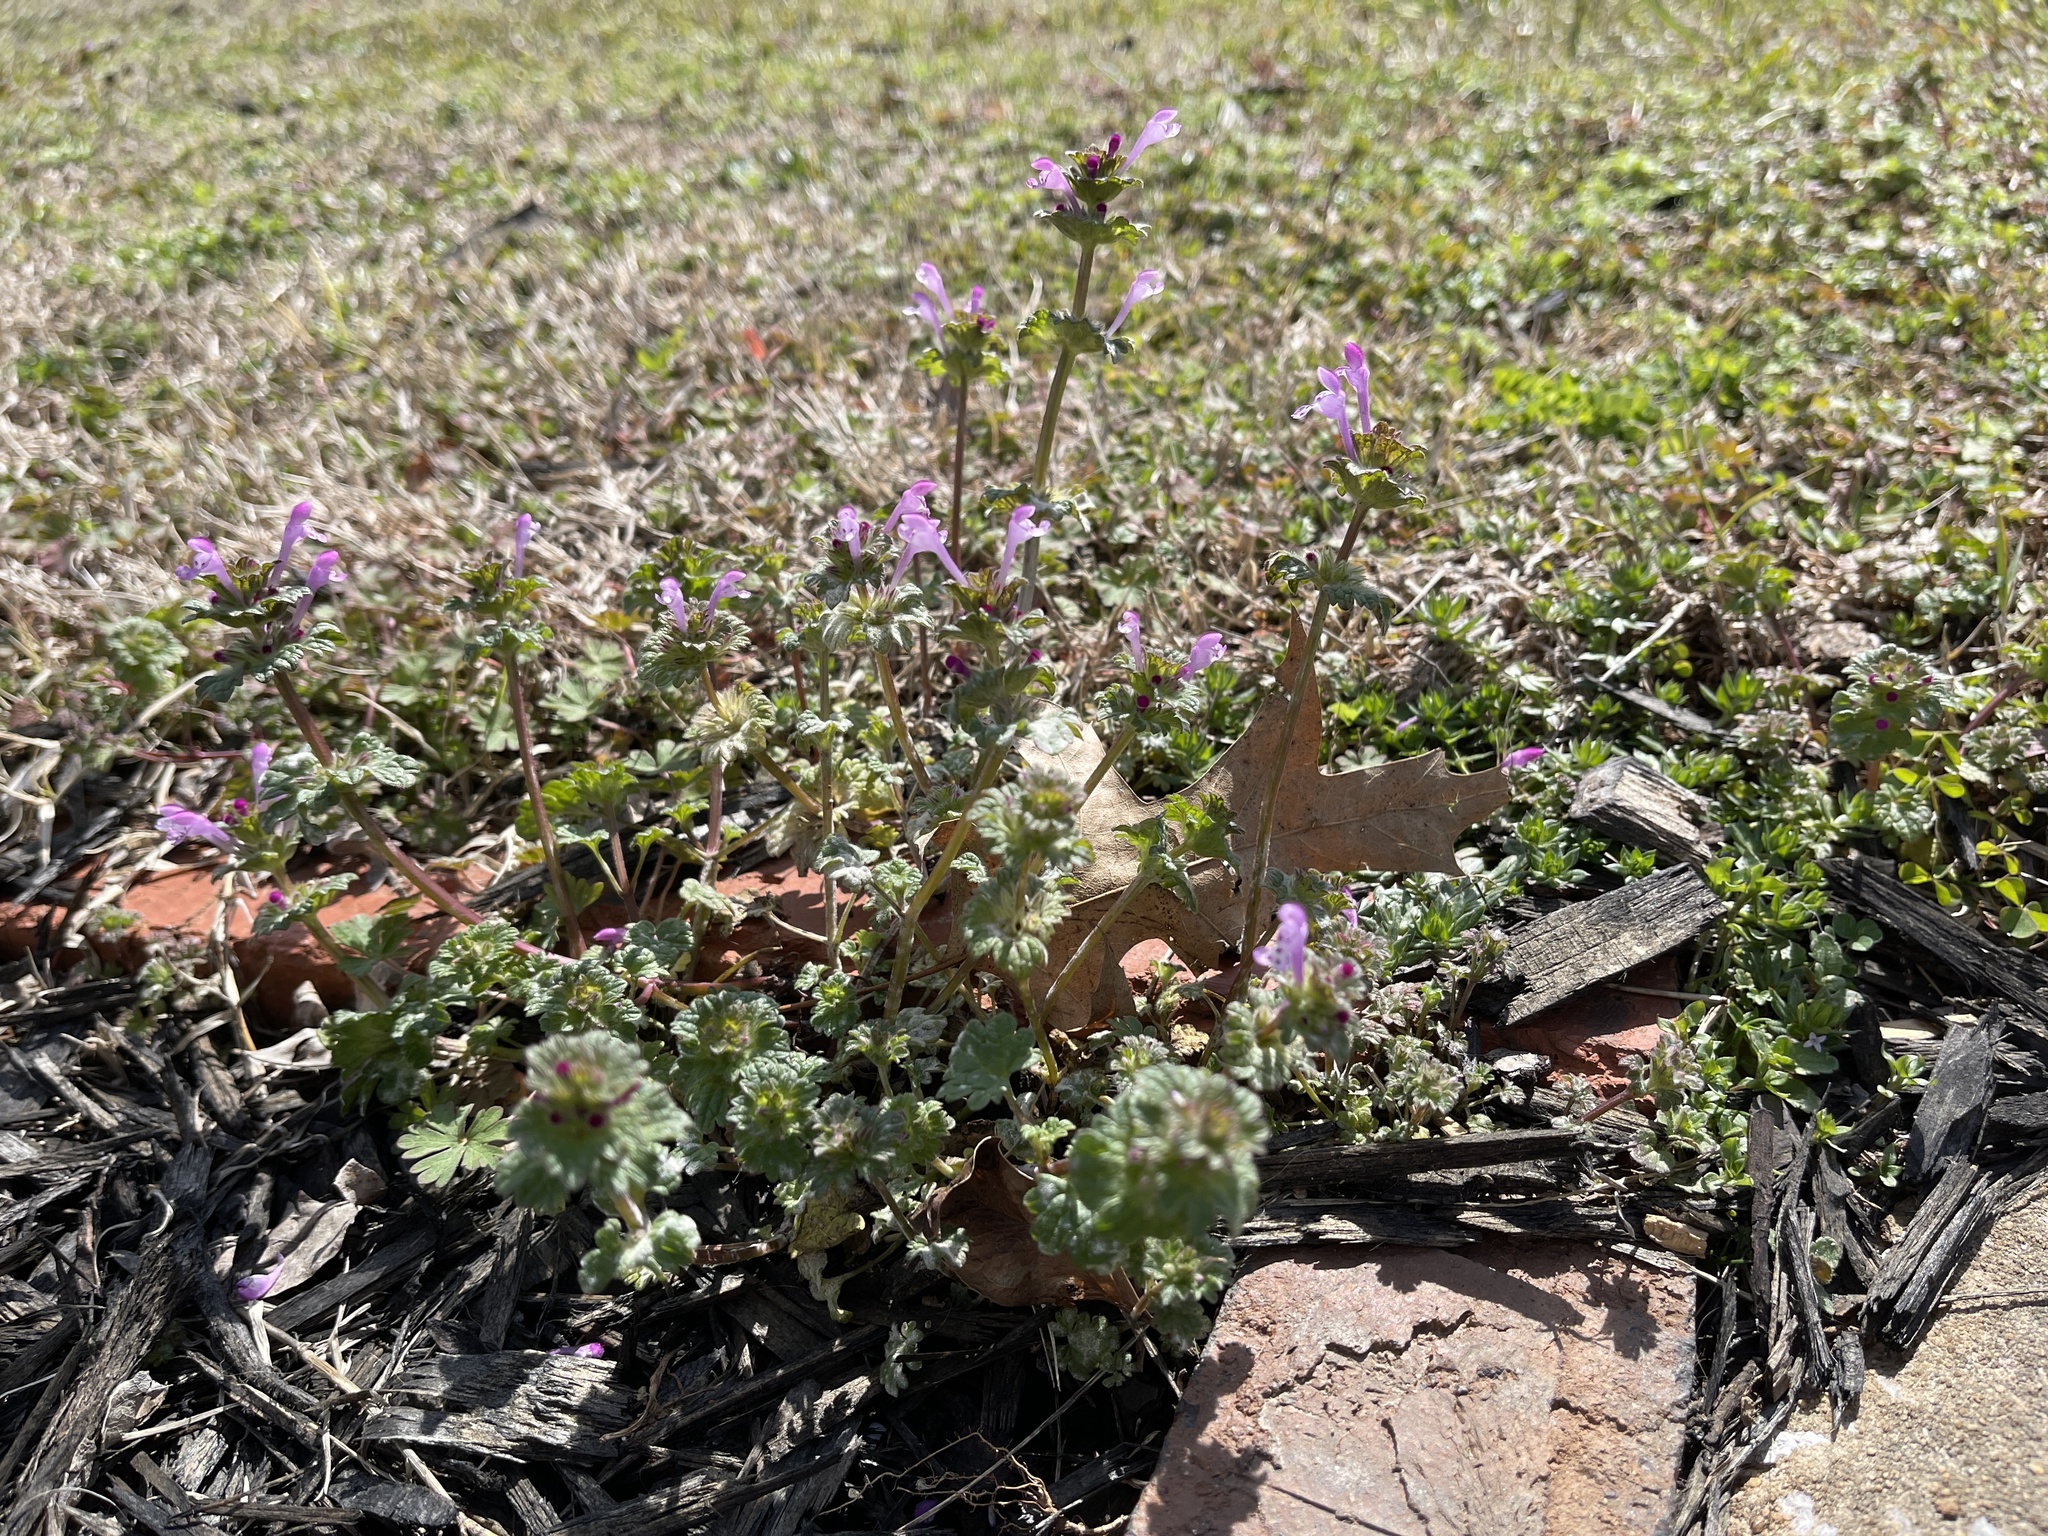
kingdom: Plantae
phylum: Tracheophyta
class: Magnoliopsida
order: Lamiales
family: Lamiaceae
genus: Lamium
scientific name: Lamium amplexicaule
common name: Henbit dead-nettle
